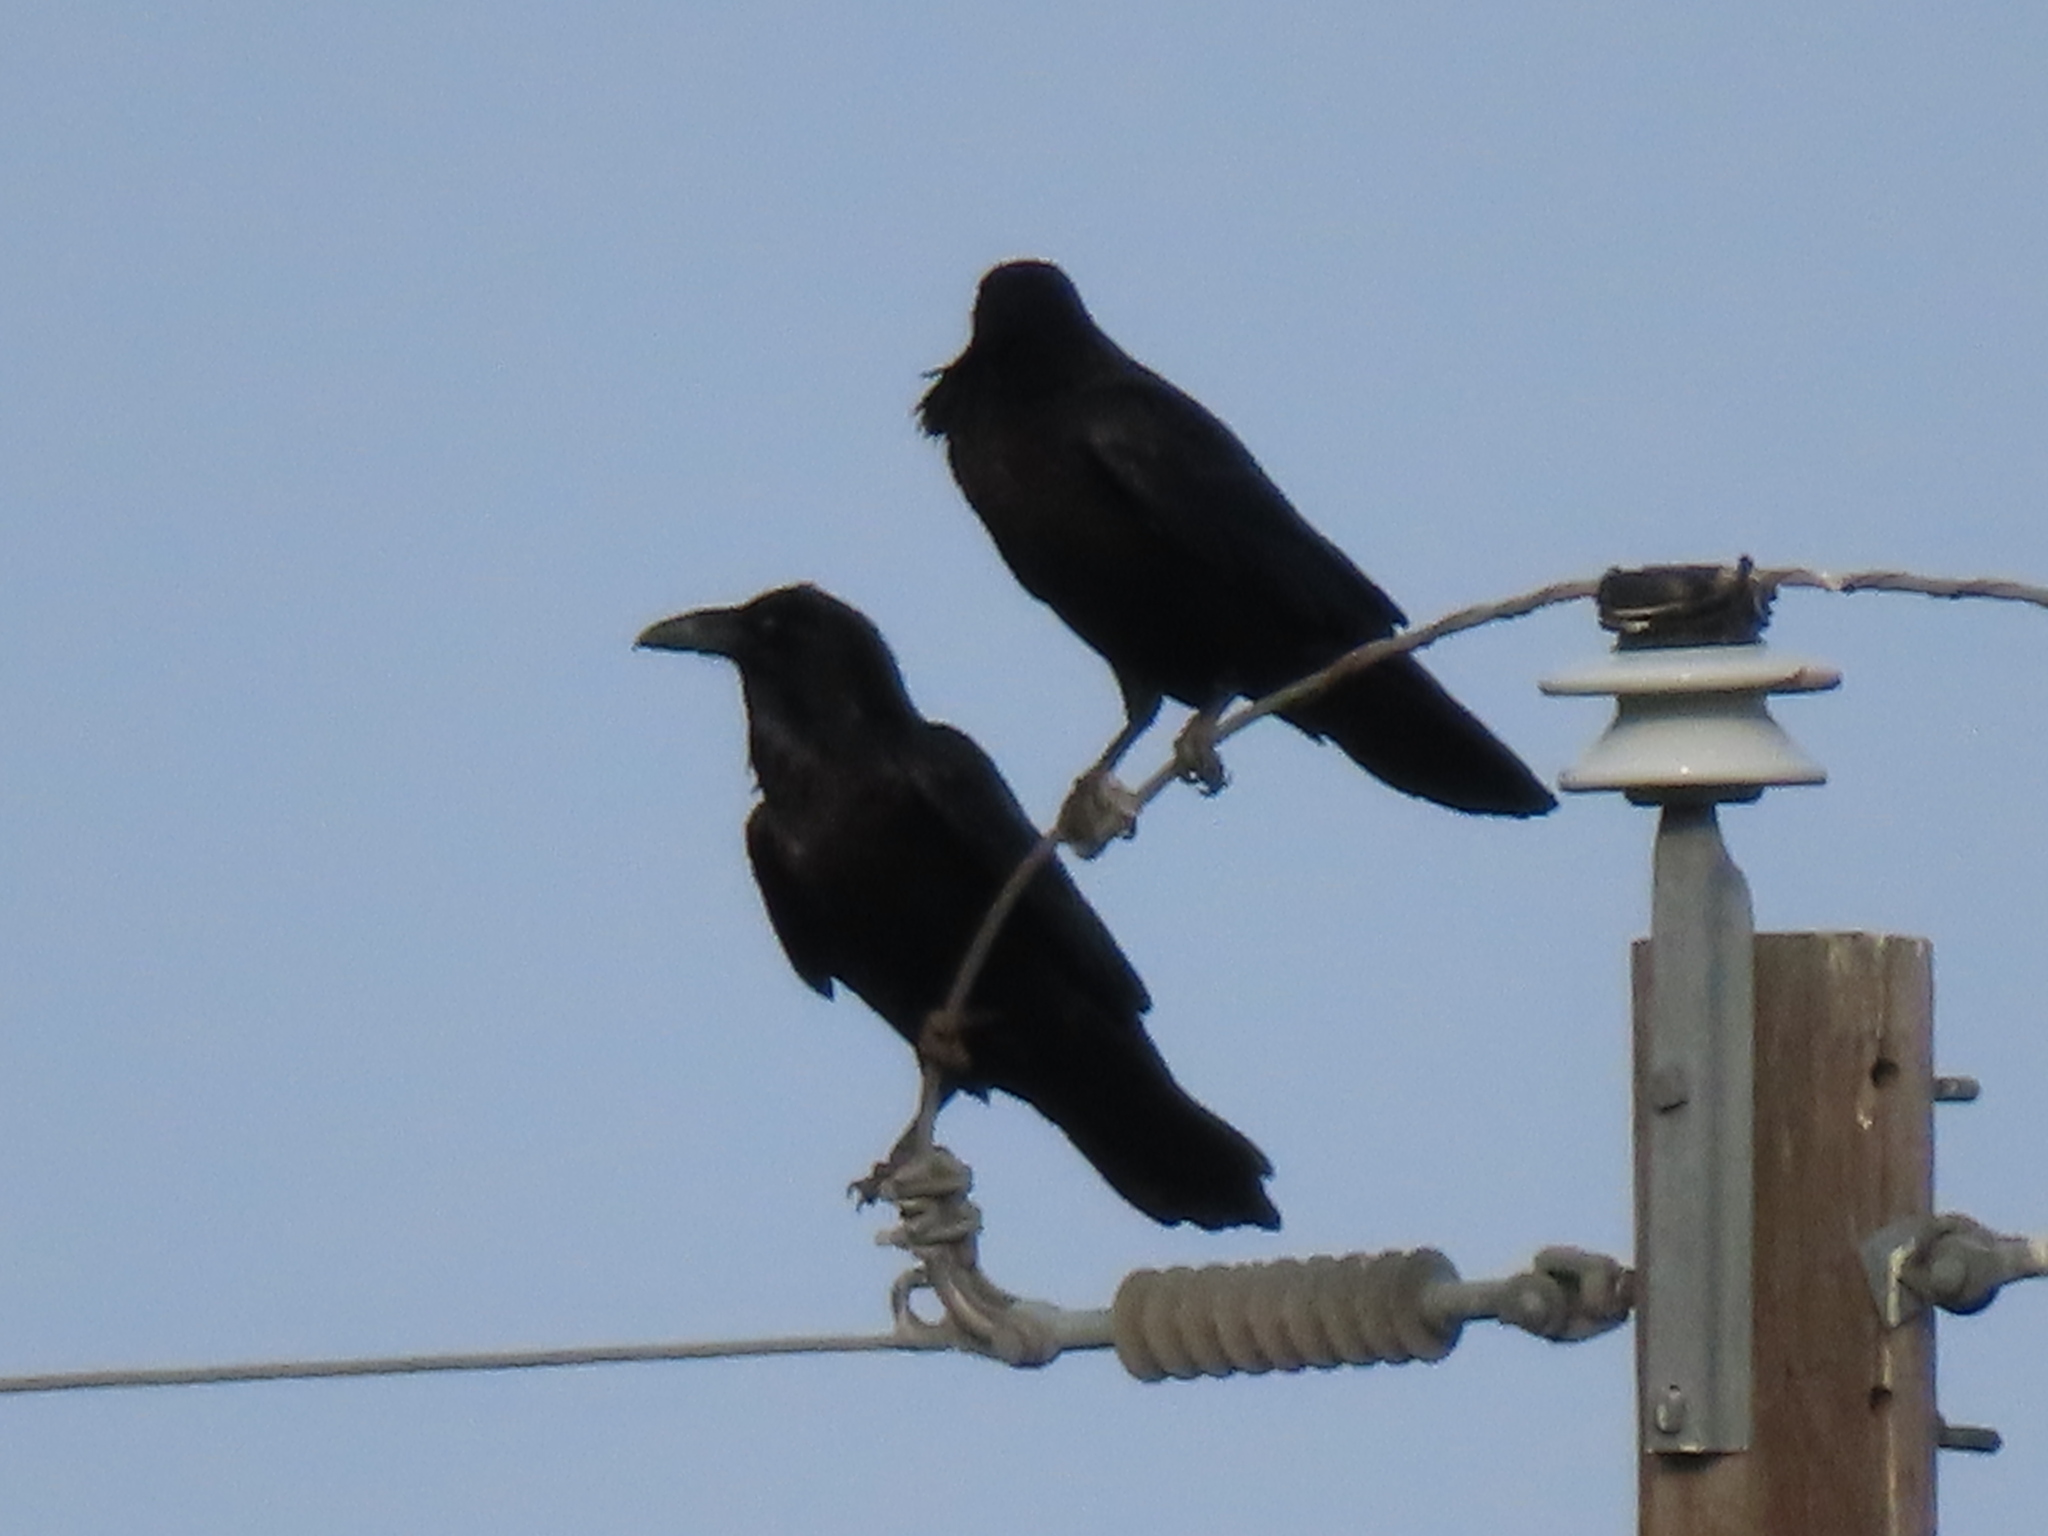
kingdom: Animalia
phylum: Chordata
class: Aves
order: Passeriformes
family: Corvidae
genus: Corvus
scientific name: Corvus corax
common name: Common raven
